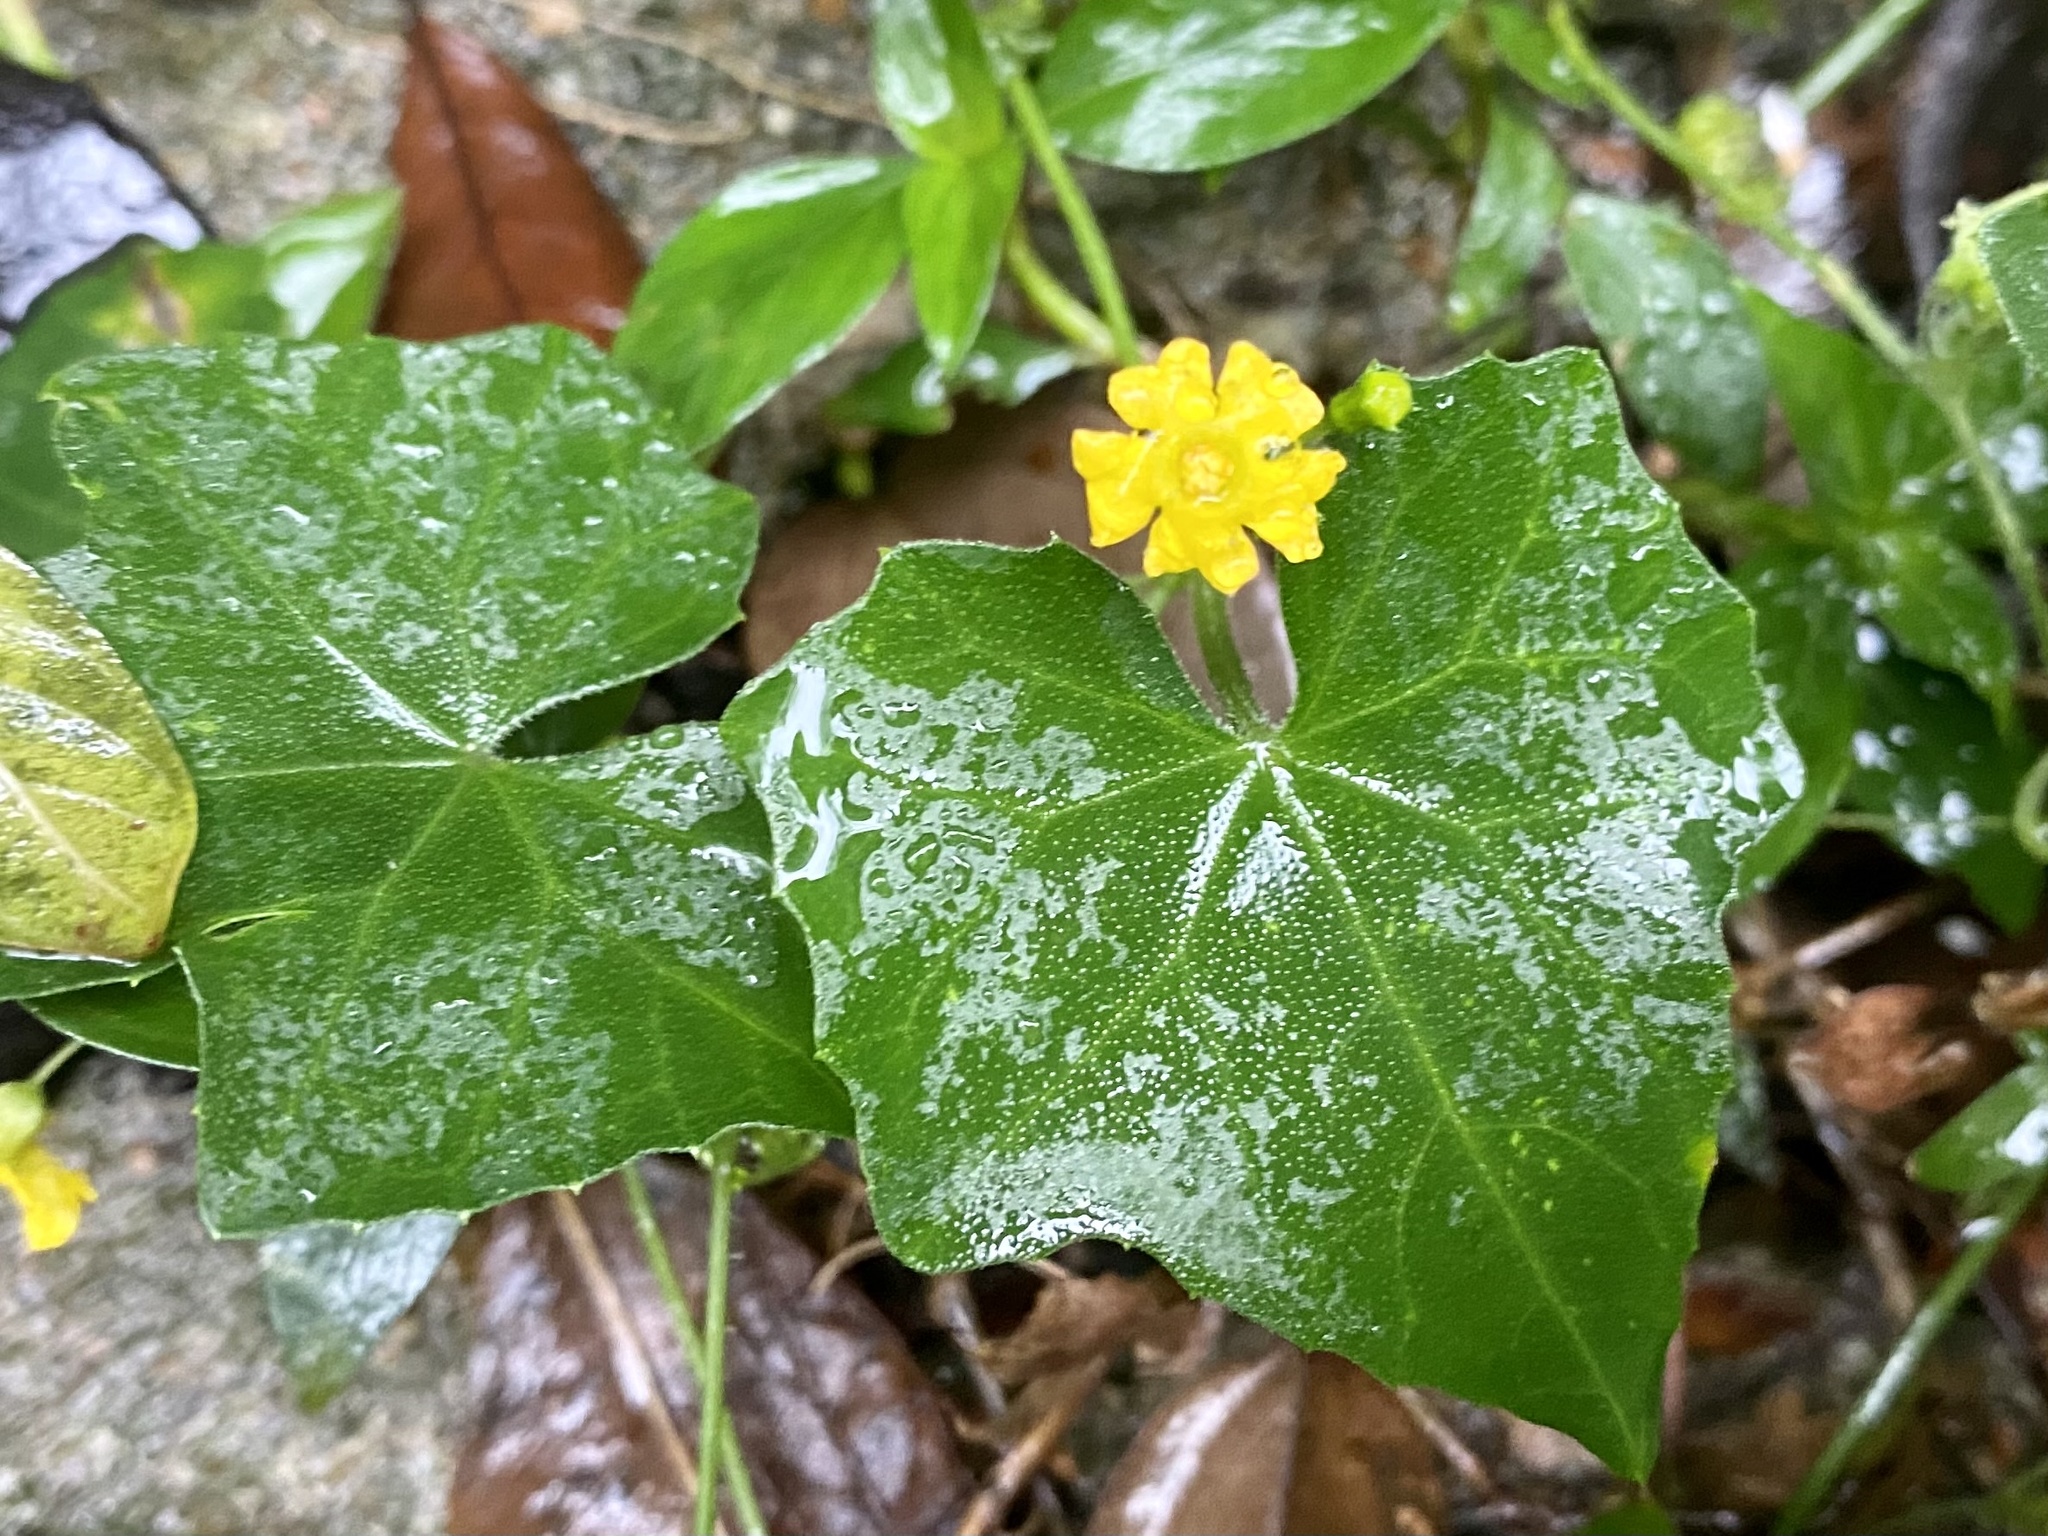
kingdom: Plantae
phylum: Tracheophyta
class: Magnoliopsida
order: Cucurbitales
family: Cucurbitaceae
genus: Melothria
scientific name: Melothria pendula
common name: Creeping-cucumber
